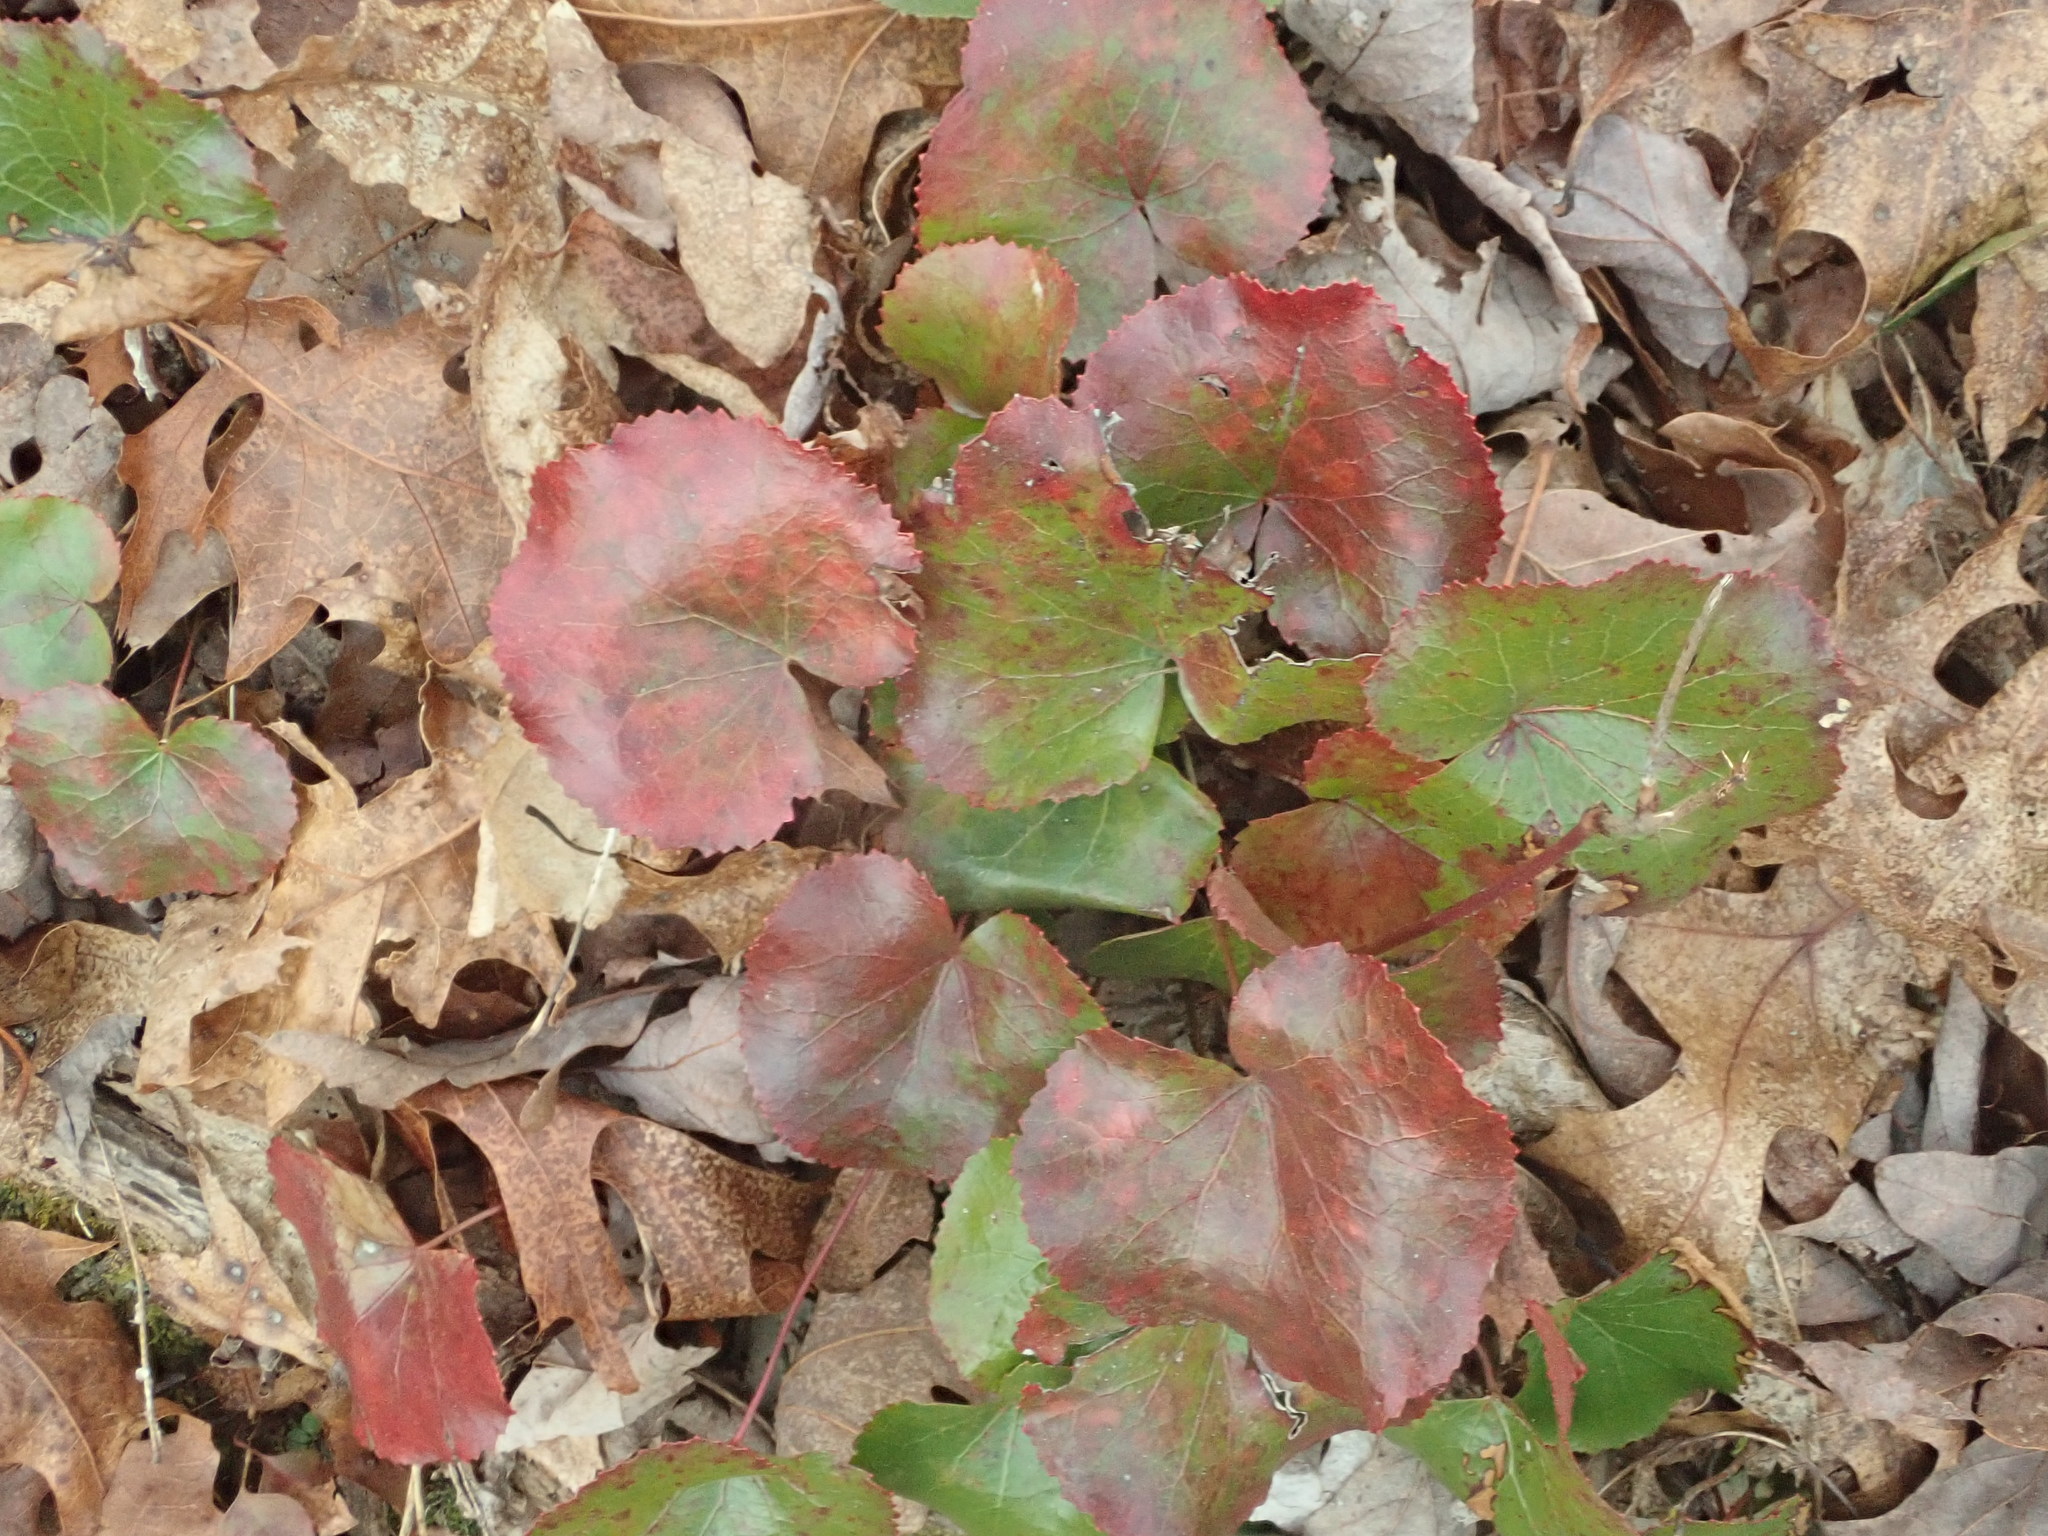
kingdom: Plantae
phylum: Tracheophyta
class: Magnoliopsida
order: Ericales
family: Diapensiaceae
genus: Galax
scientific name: Galax urceolata
